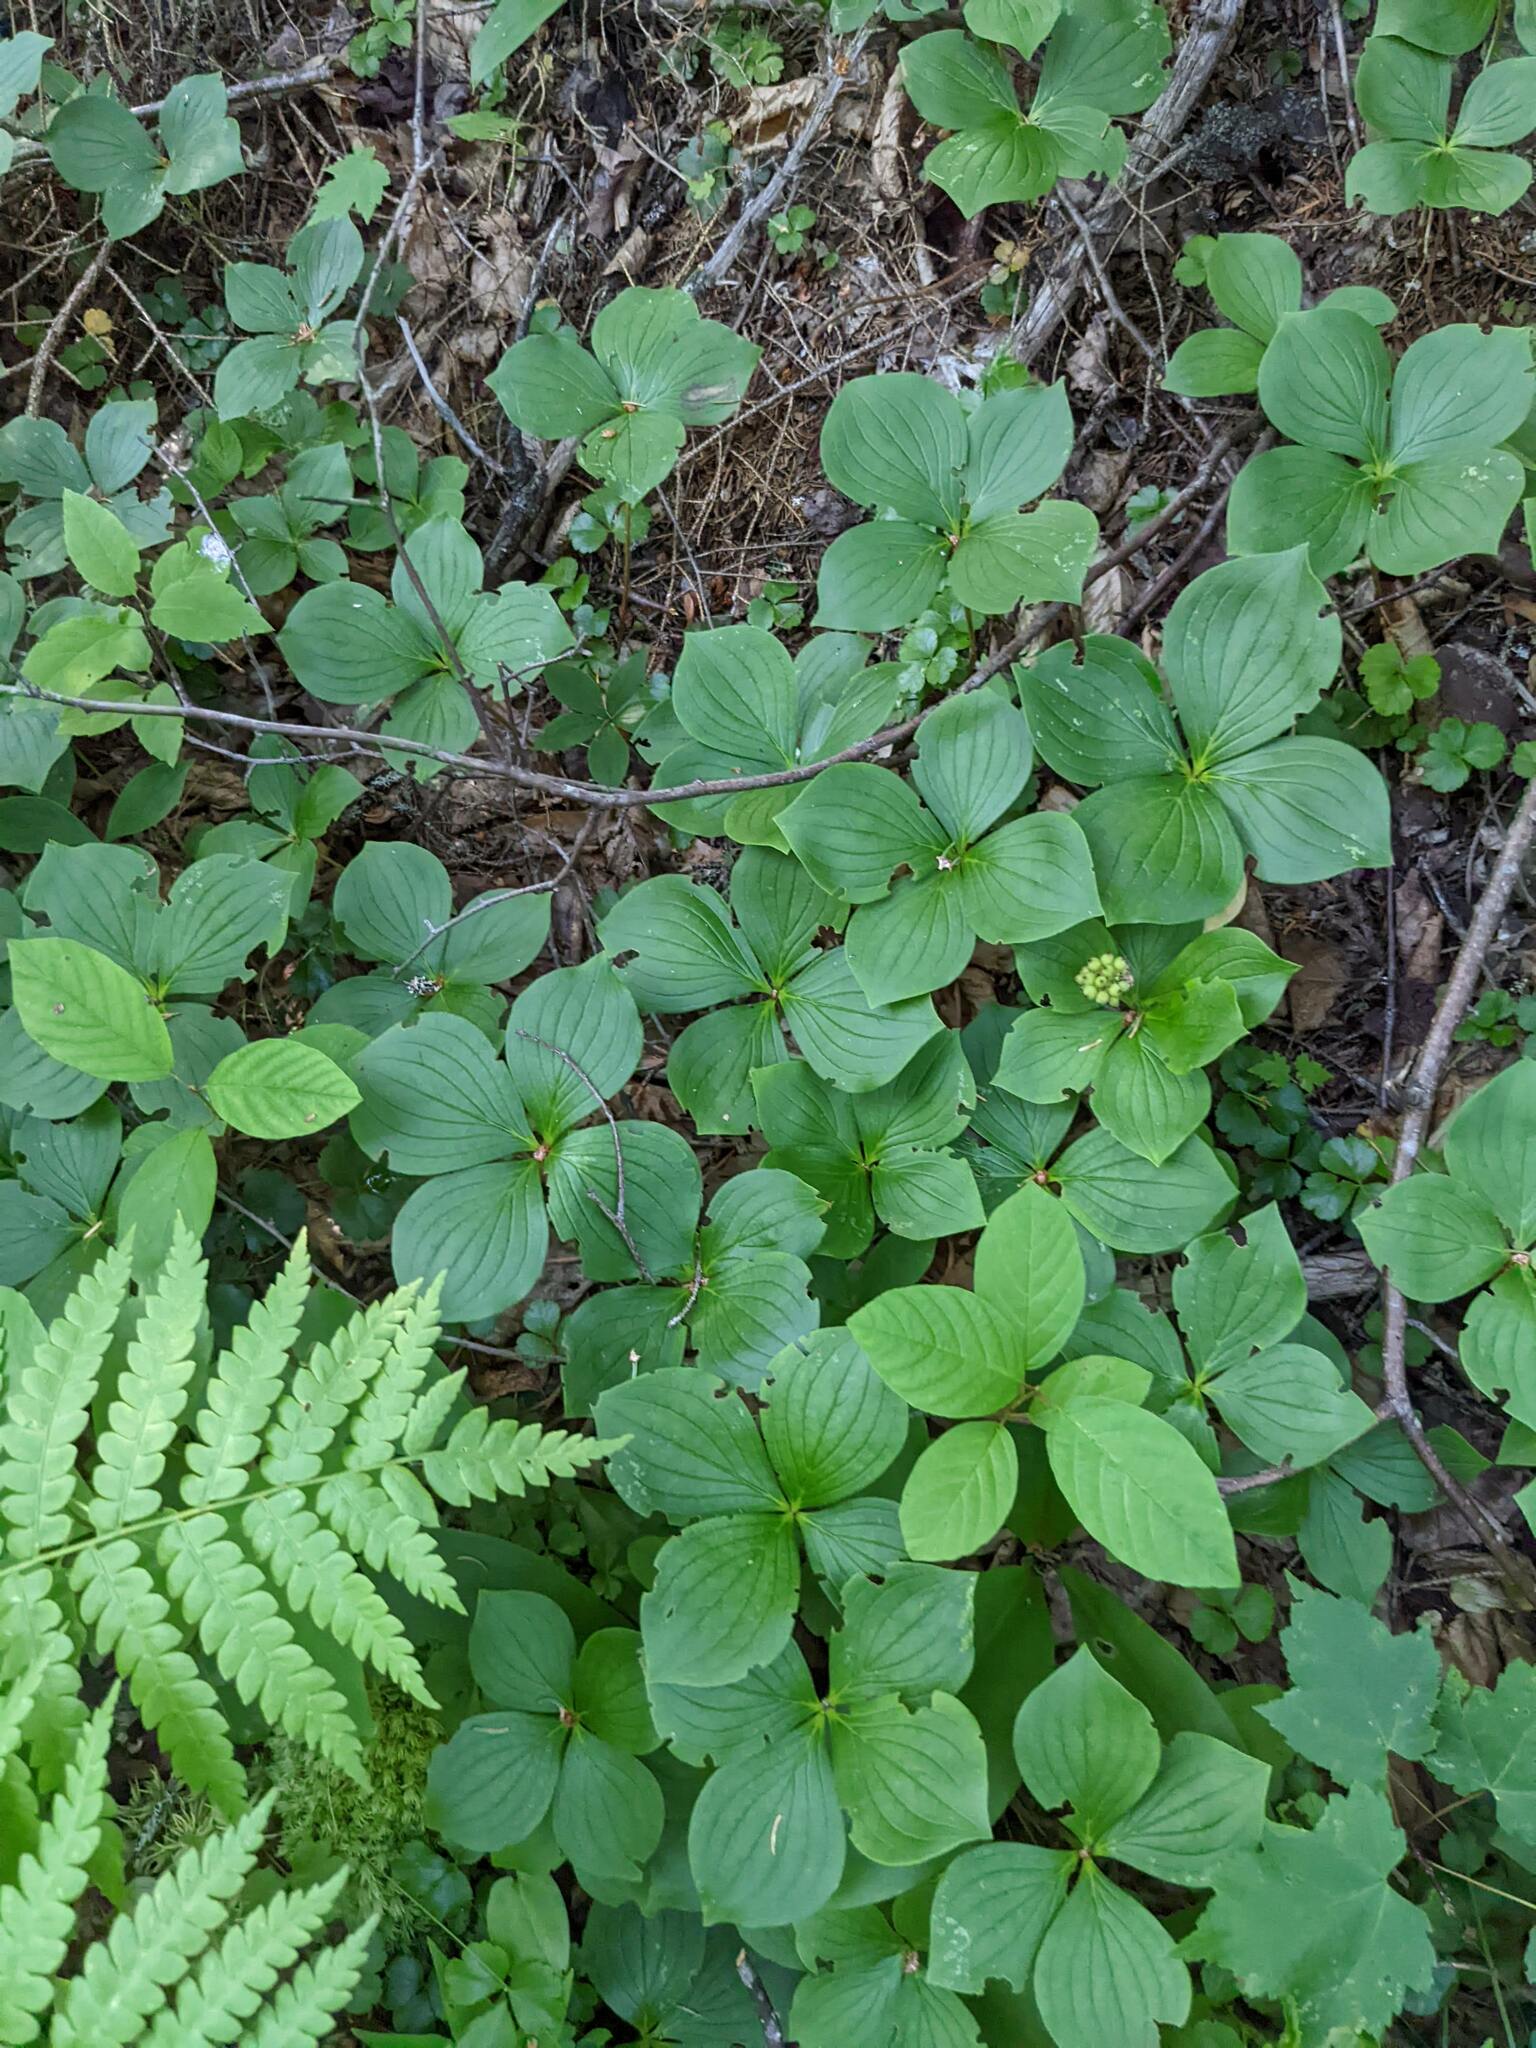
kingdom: Plantae
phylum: Tracheophyta
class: Magnoliopsida
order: Cornales
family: Cornaceae
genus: Cornus
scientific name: Cornus canadensis
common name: Creeping dogwood
